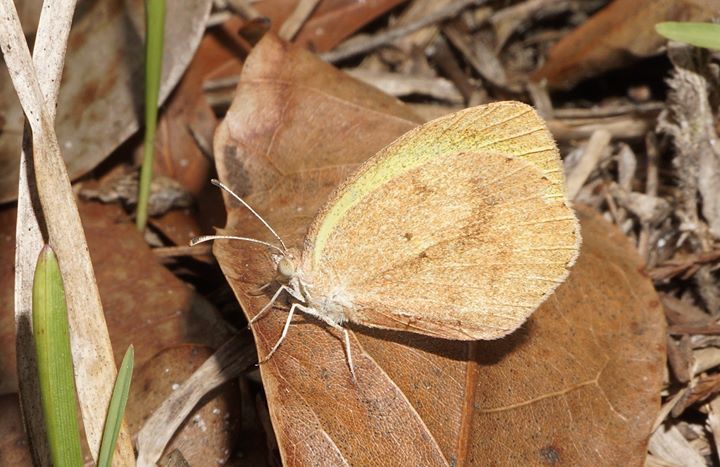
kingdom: Animalia
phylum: Arthropoda
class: Insecta
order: Lepidoptera
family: Pieridae
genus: Eurema
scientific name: Eurema daira
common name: Barred sulphur
